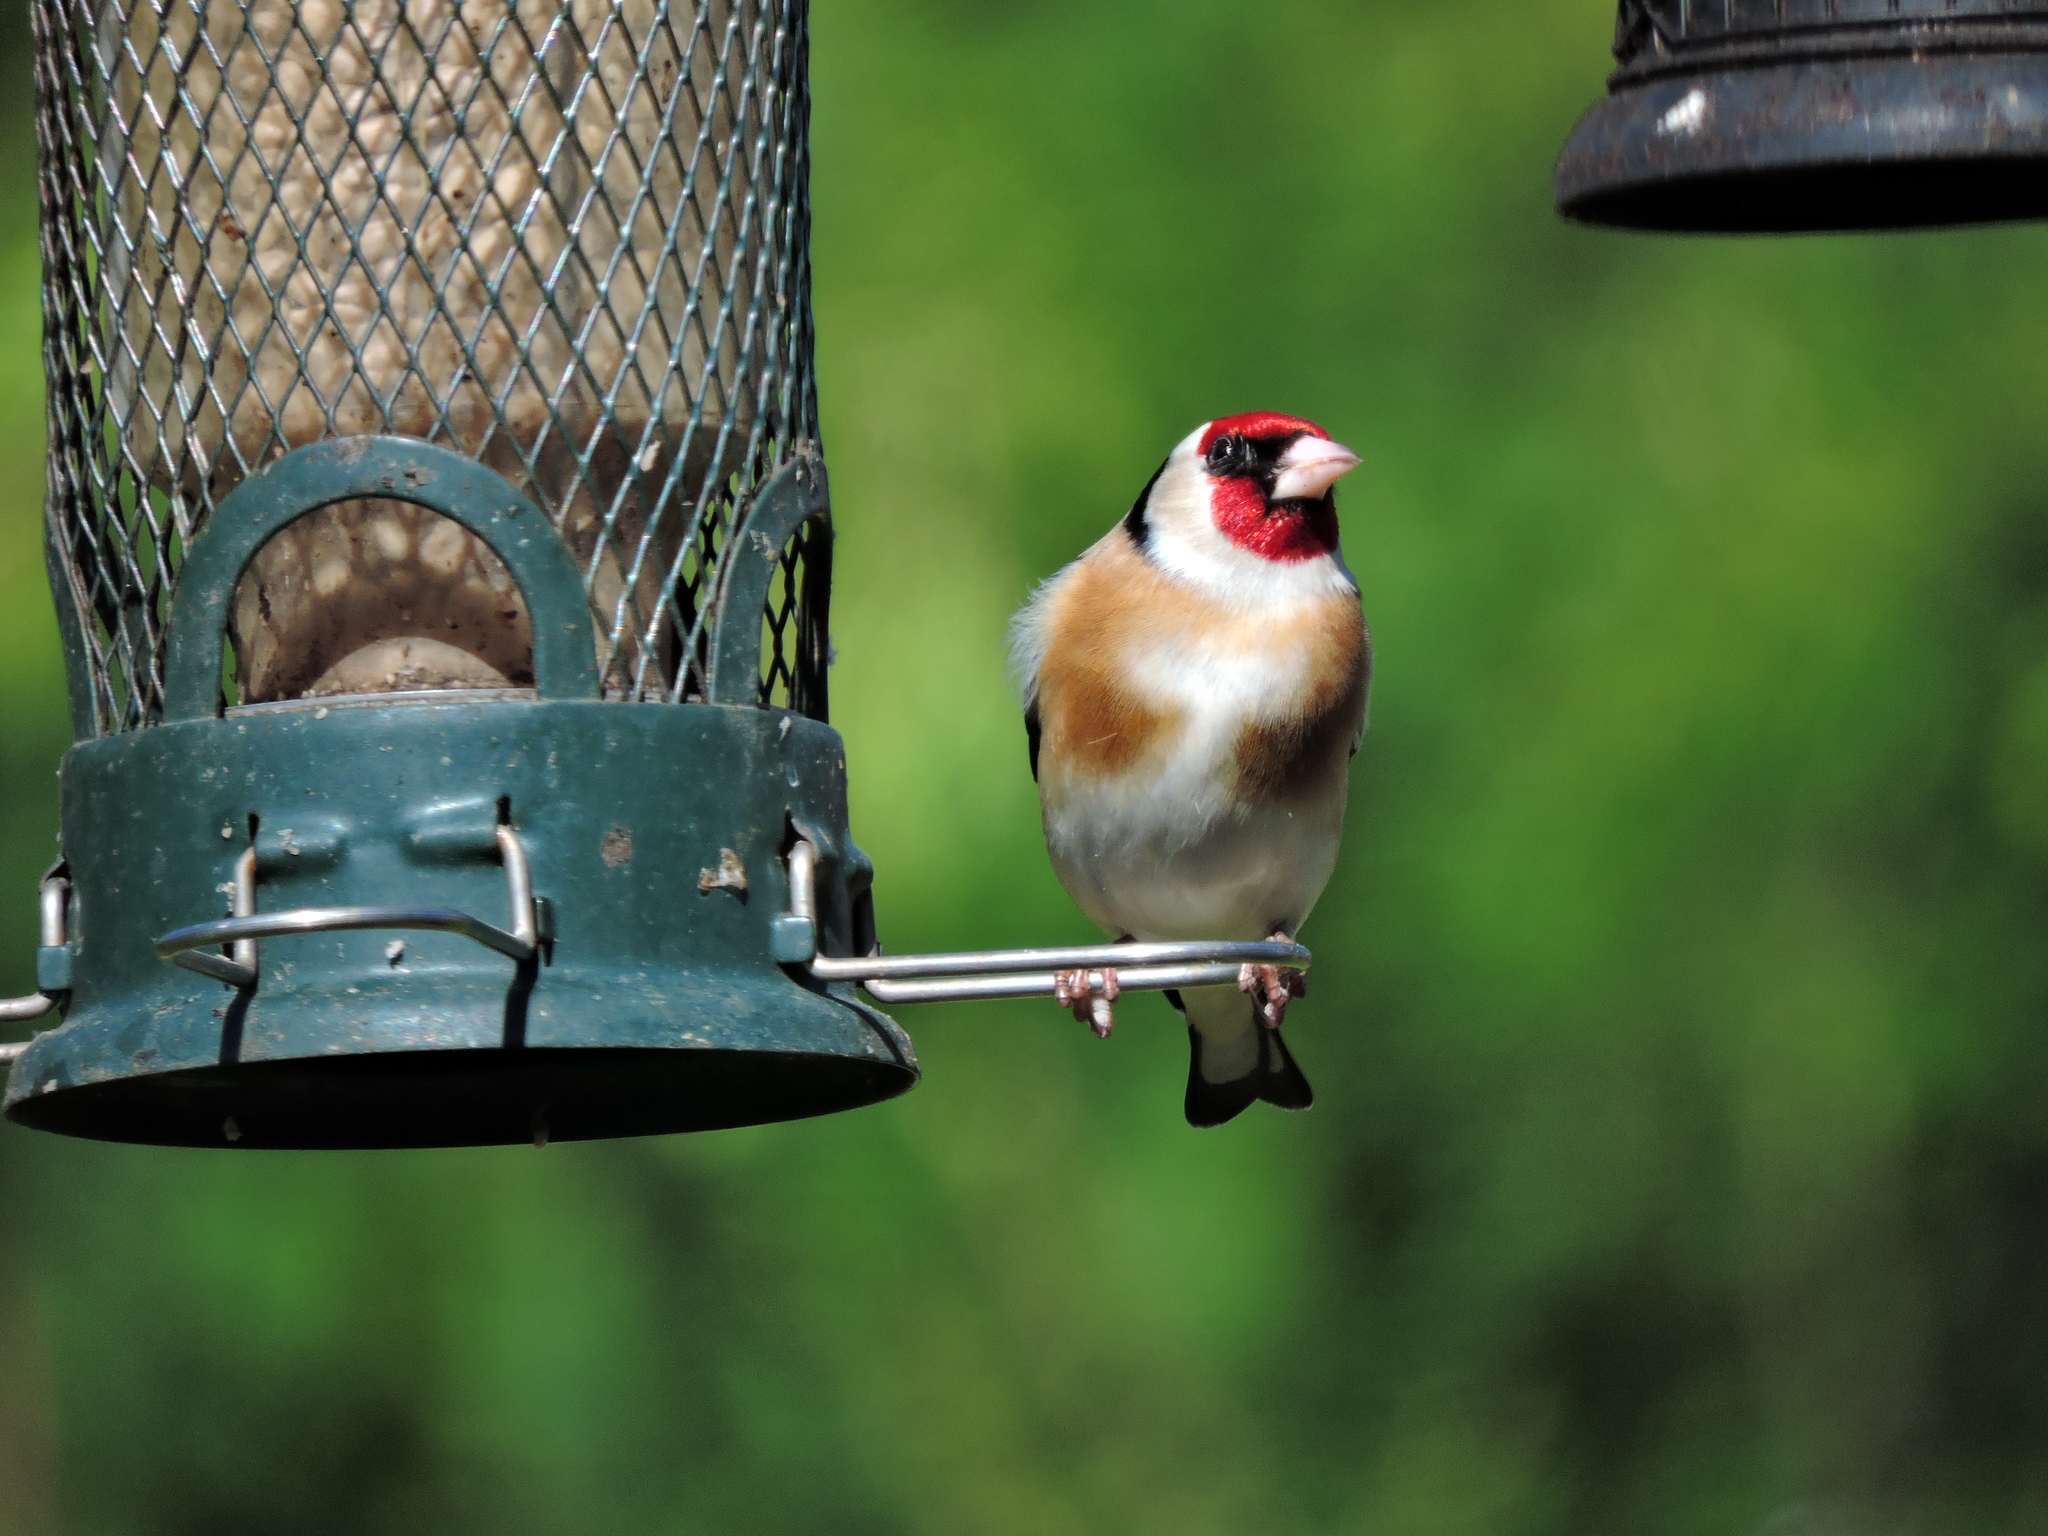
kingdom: Animalia
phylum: Chordata
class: Aves
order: Passeriformes
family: Fringillidae
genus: Carduelis
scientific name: Carduelis carduelis
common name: European goldfinch
